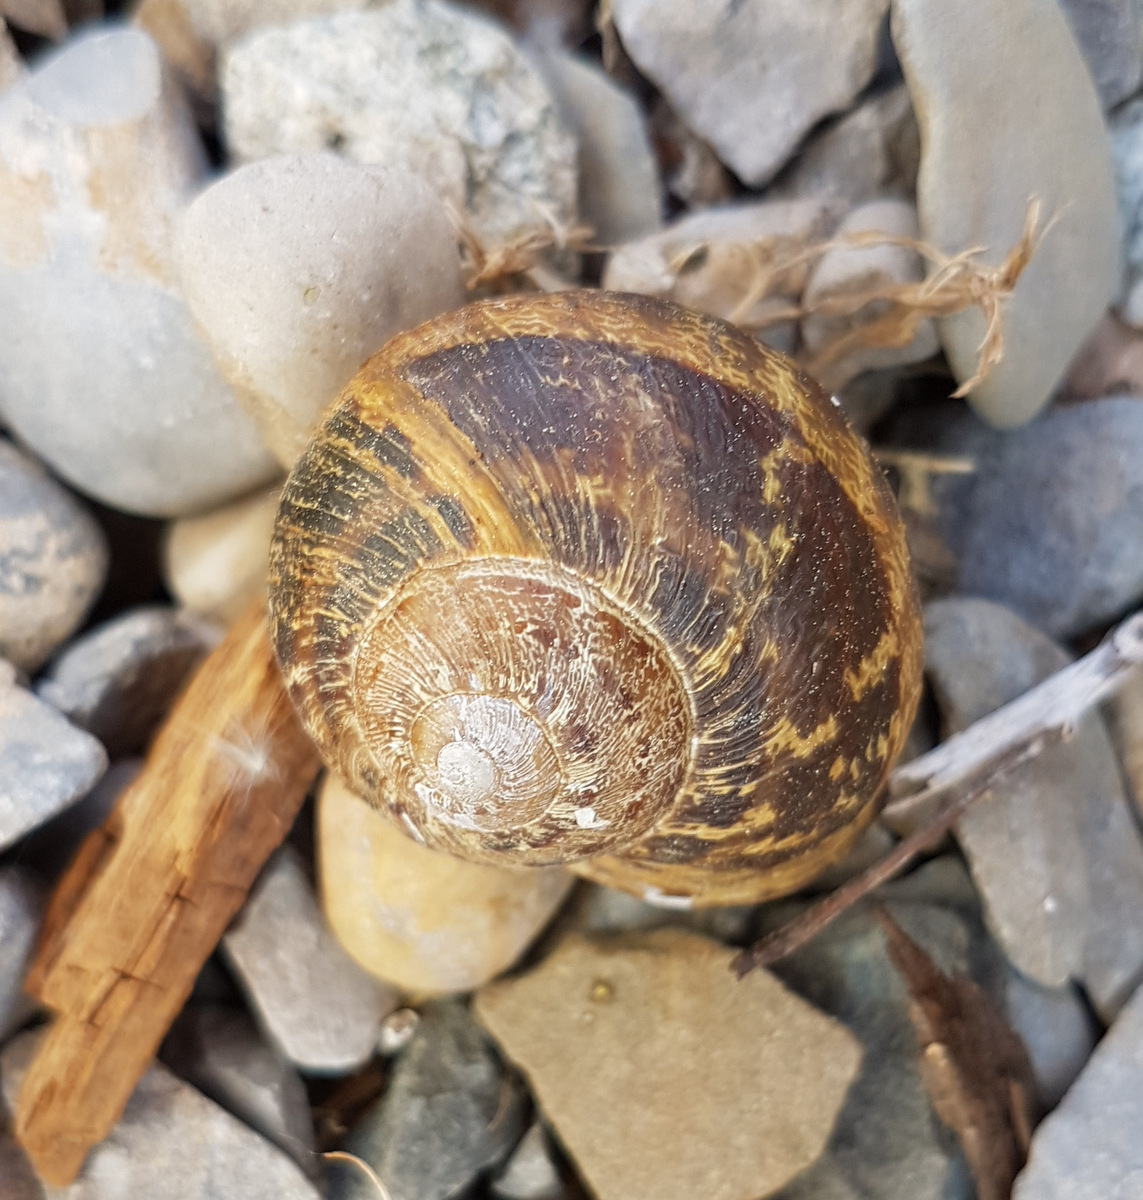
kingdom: Animalia
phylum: Mollusca
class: Gastropoda
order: Stylommatophora
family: Helicidae
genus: Cornu
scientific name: Cornu aspersum
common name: Brown garden snail
